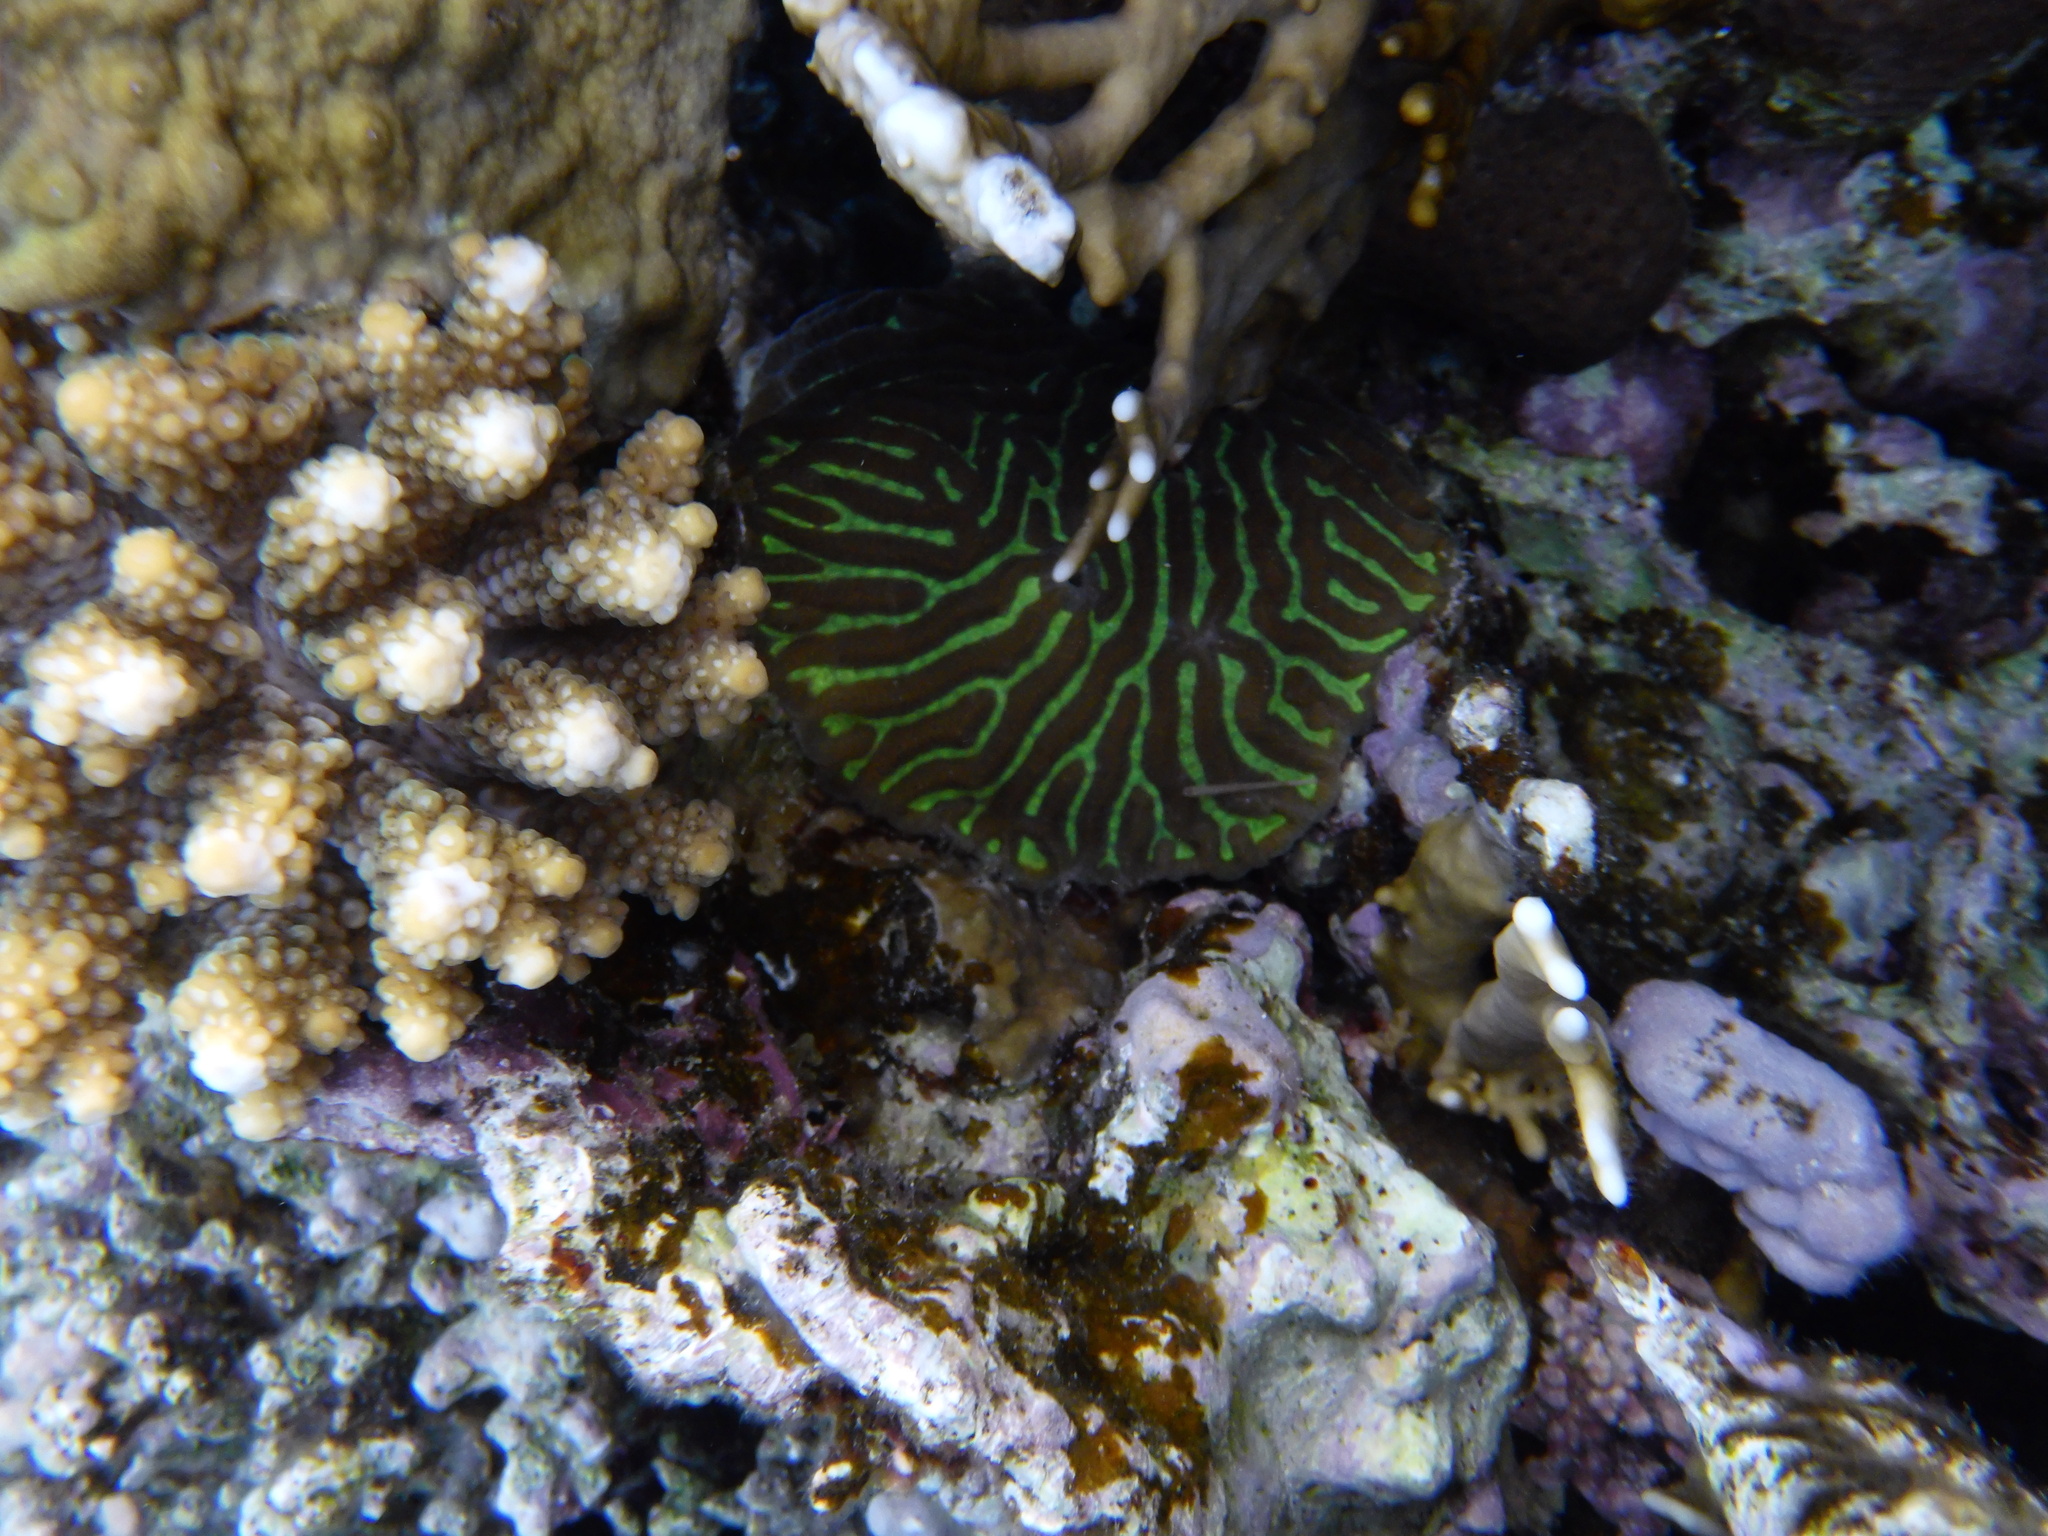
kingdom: Animalia
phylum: Cnidaria
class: Anthozoa
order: Scleractinia
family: Merulinidae
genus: Leptoria
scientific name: Leptoria phrygia
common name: Least valley coral
